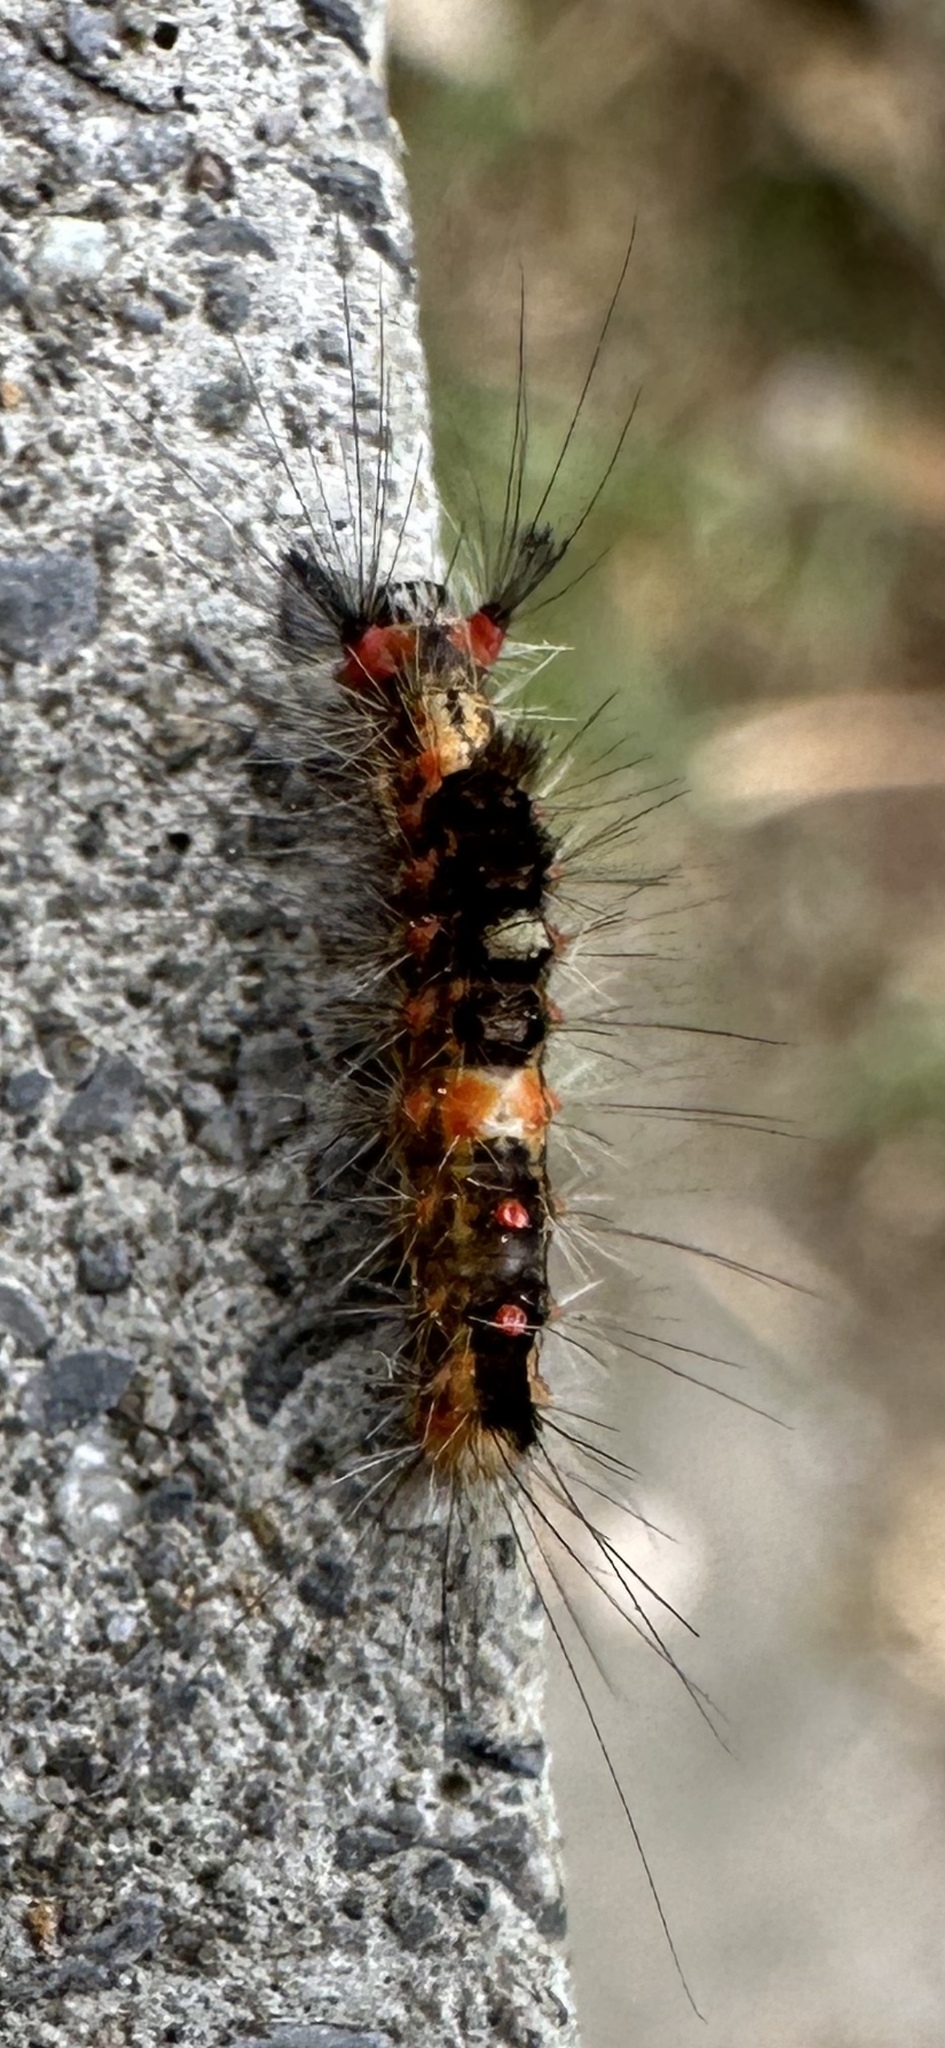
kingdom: Animalia
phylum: Arthropoda
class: Insecta
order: Lepidoptera
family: Erebidae
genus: Orgyia
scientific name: Orgyia antiqua
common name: Vapourer
